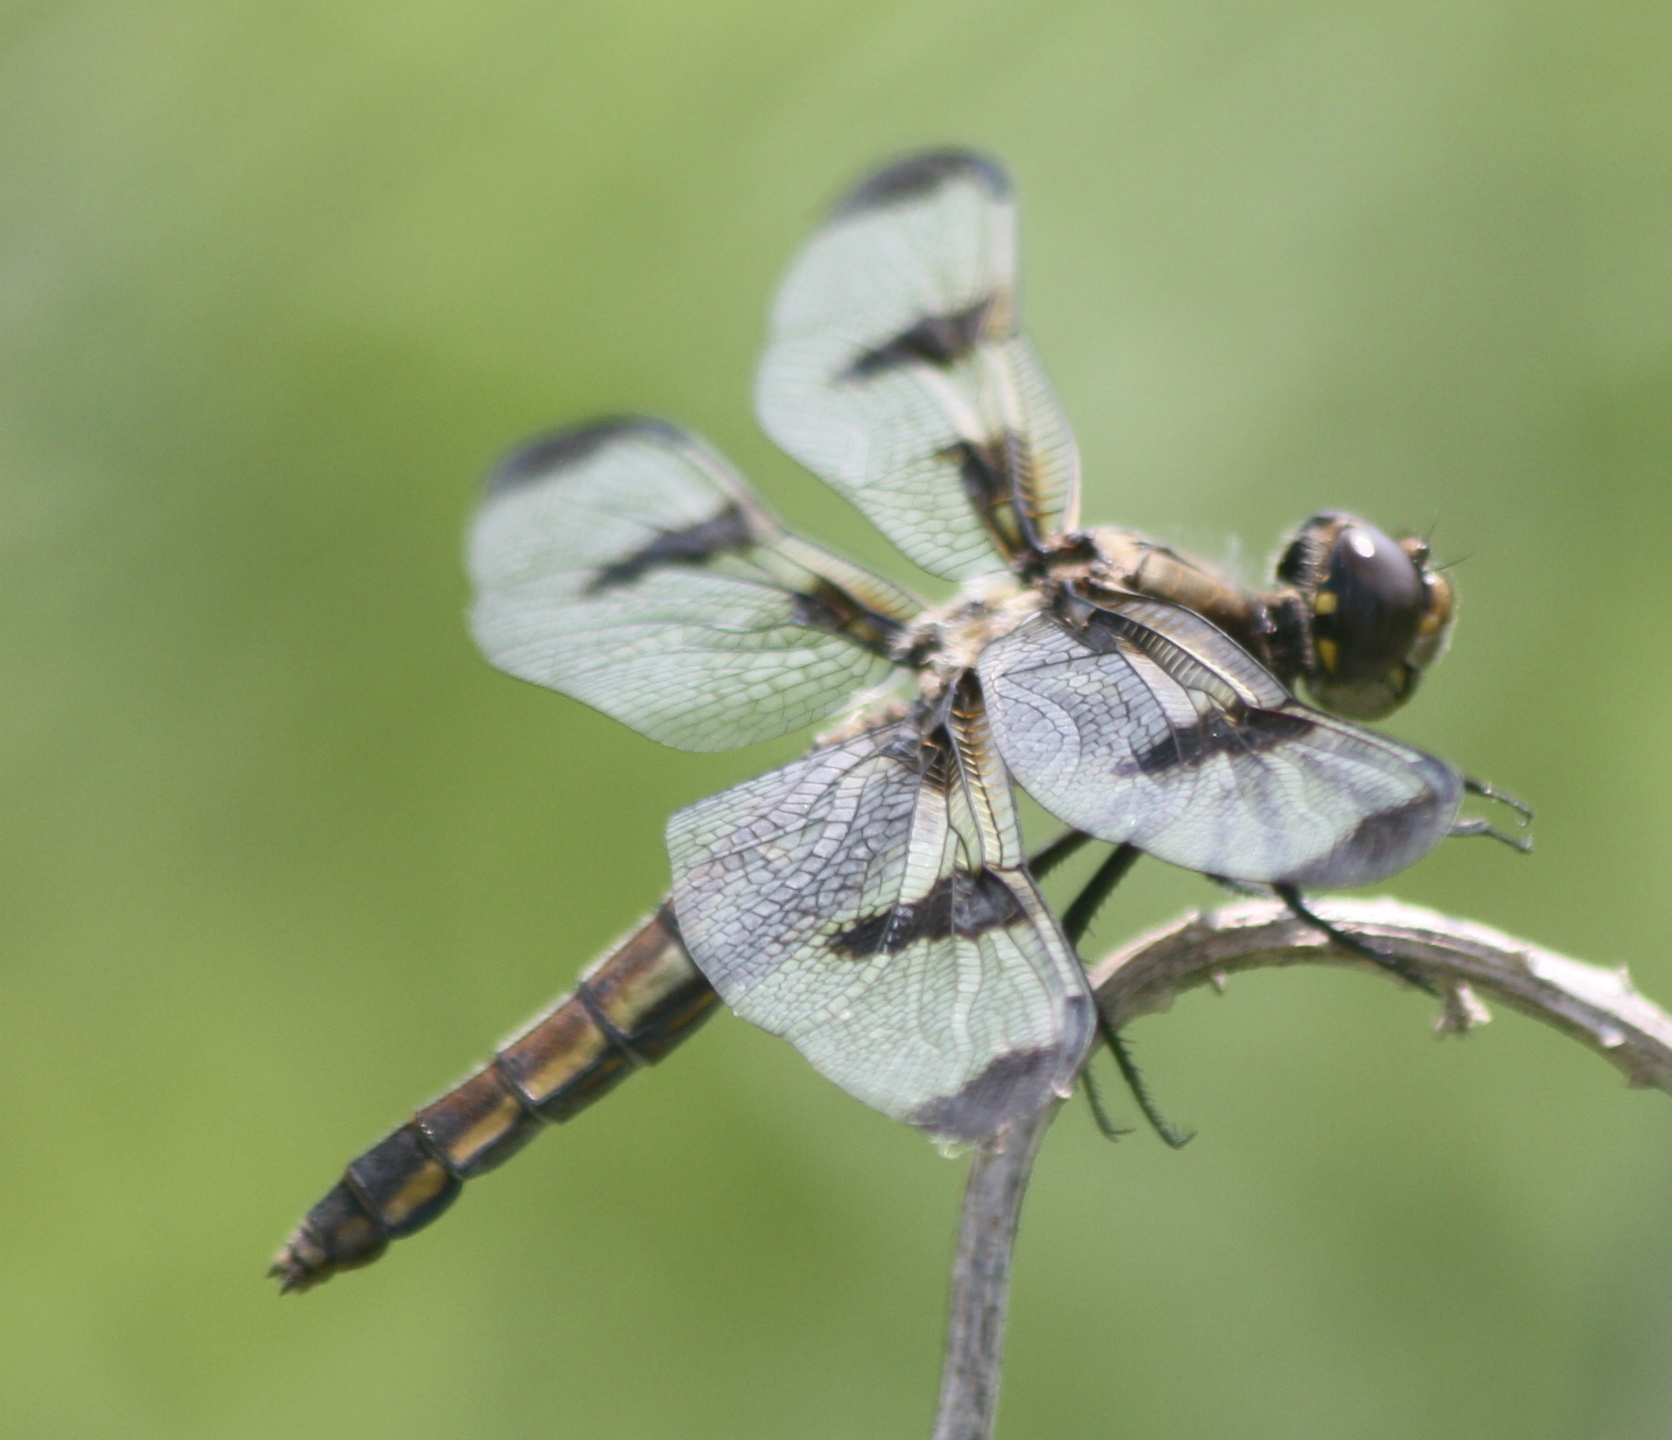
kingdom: Animalia
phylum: Arthropoda
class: Insecta
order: Odonata
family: Libellulidae
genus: Libellula
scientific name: Libellula pulchella
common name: Twelve-spotted skimmer
